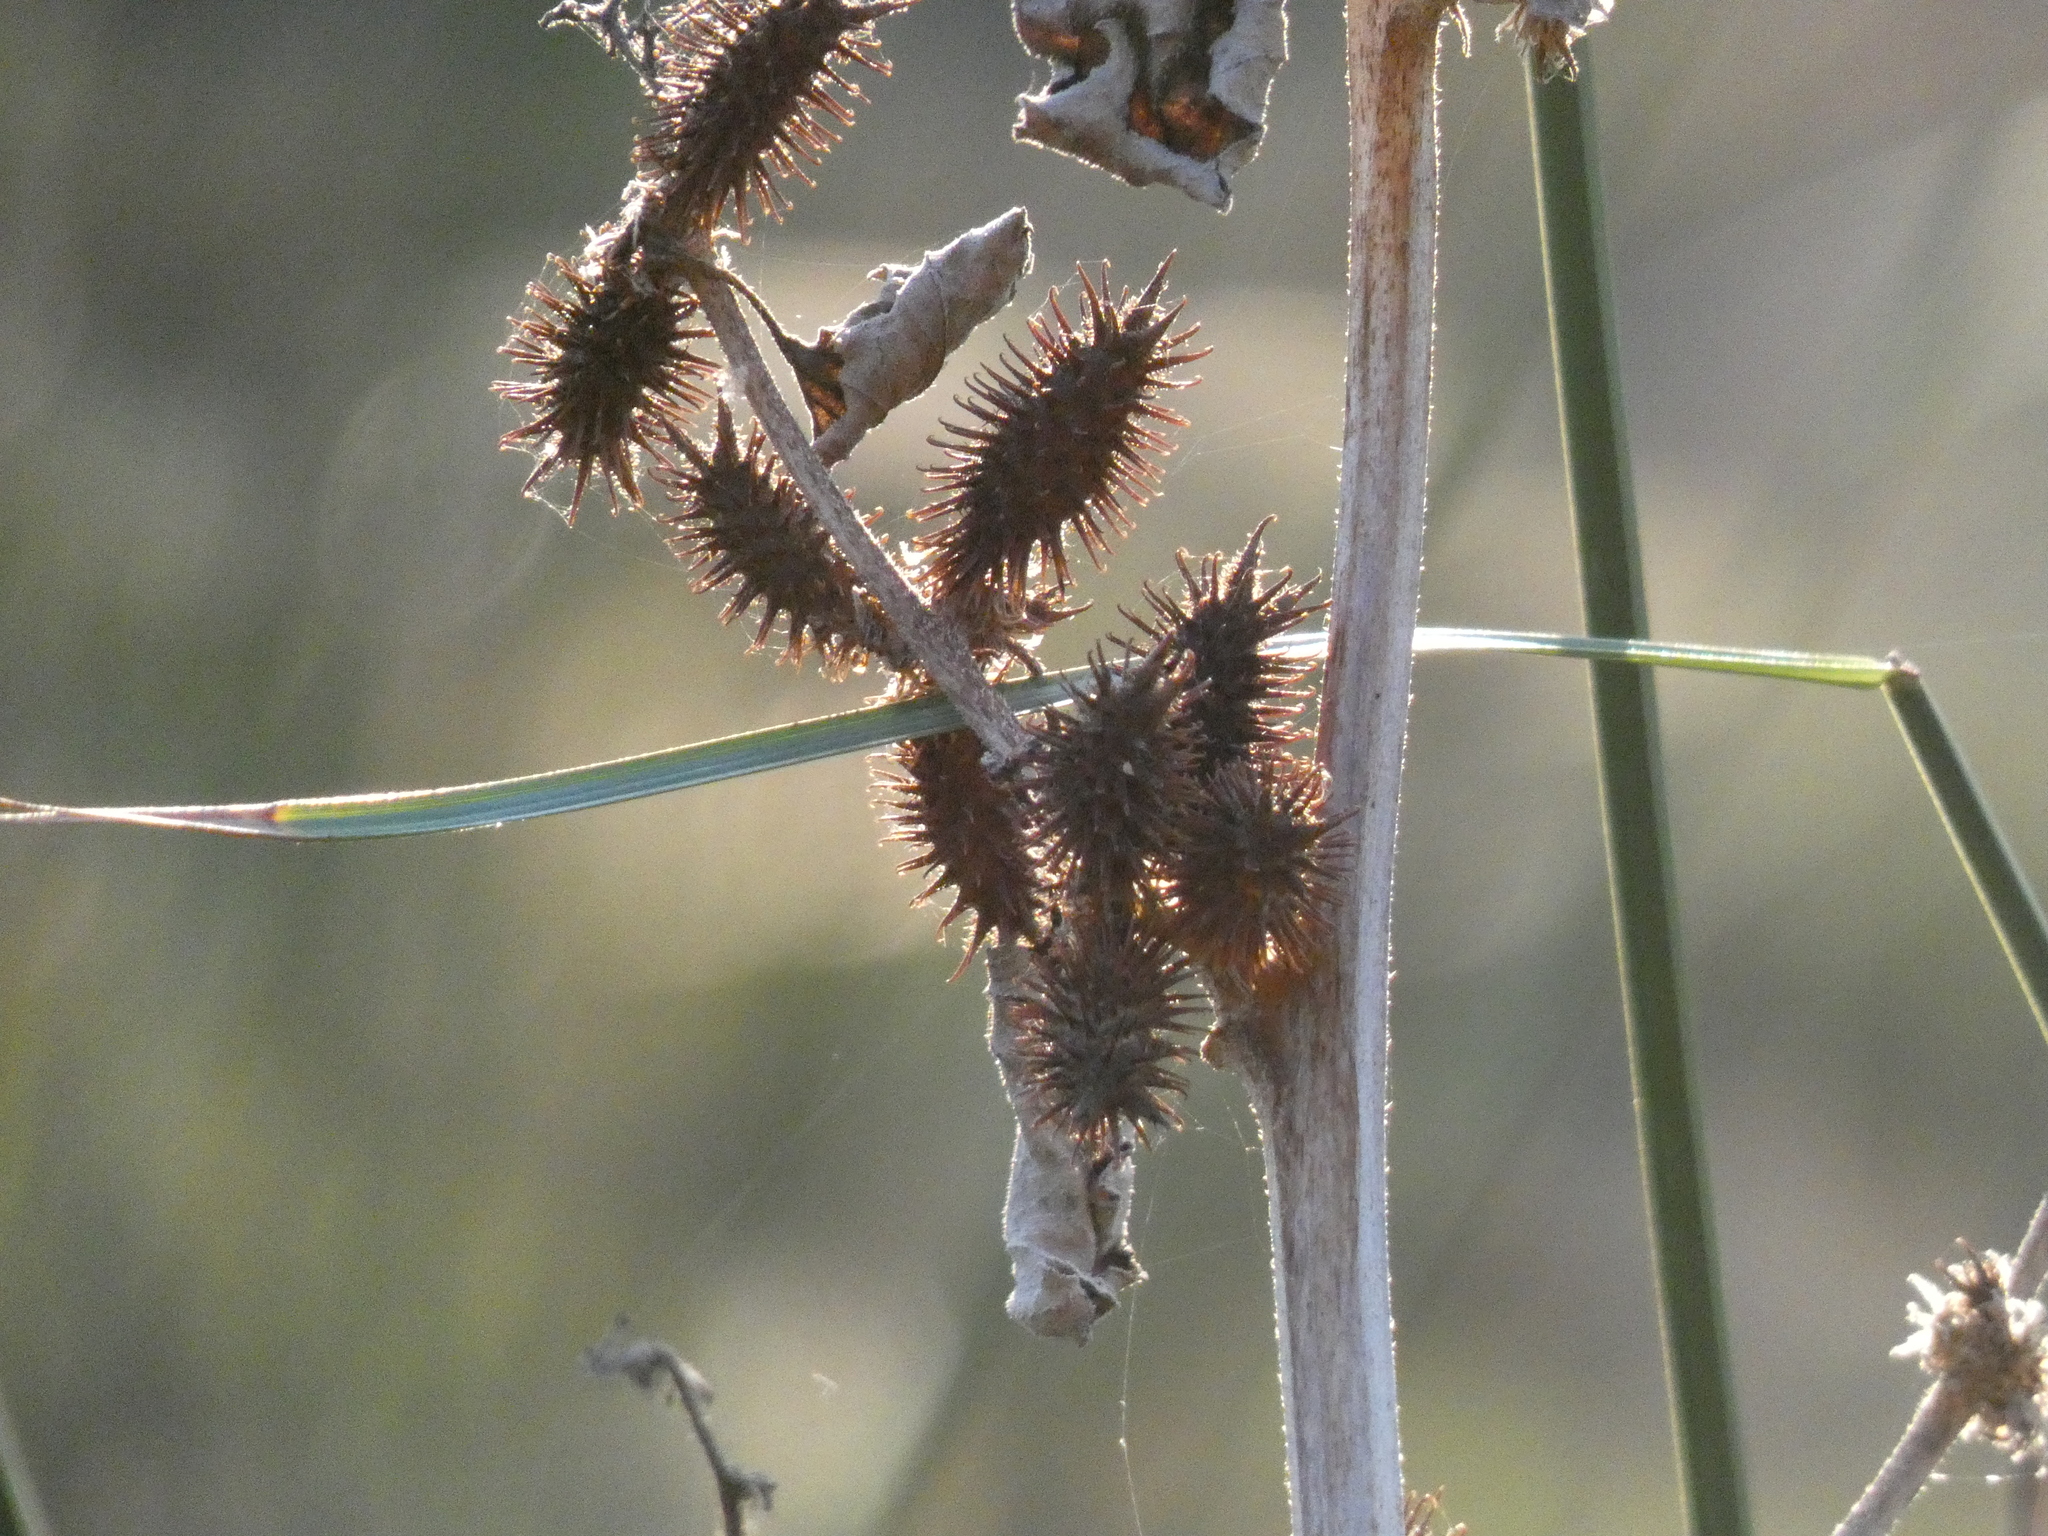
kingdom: Plantae
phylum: Tracheophyta
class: Magnoliopsida
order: Asterales
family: Asteraceae
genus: Xanthium
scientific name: Xanthium strumarium
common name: Rough cocklebur
